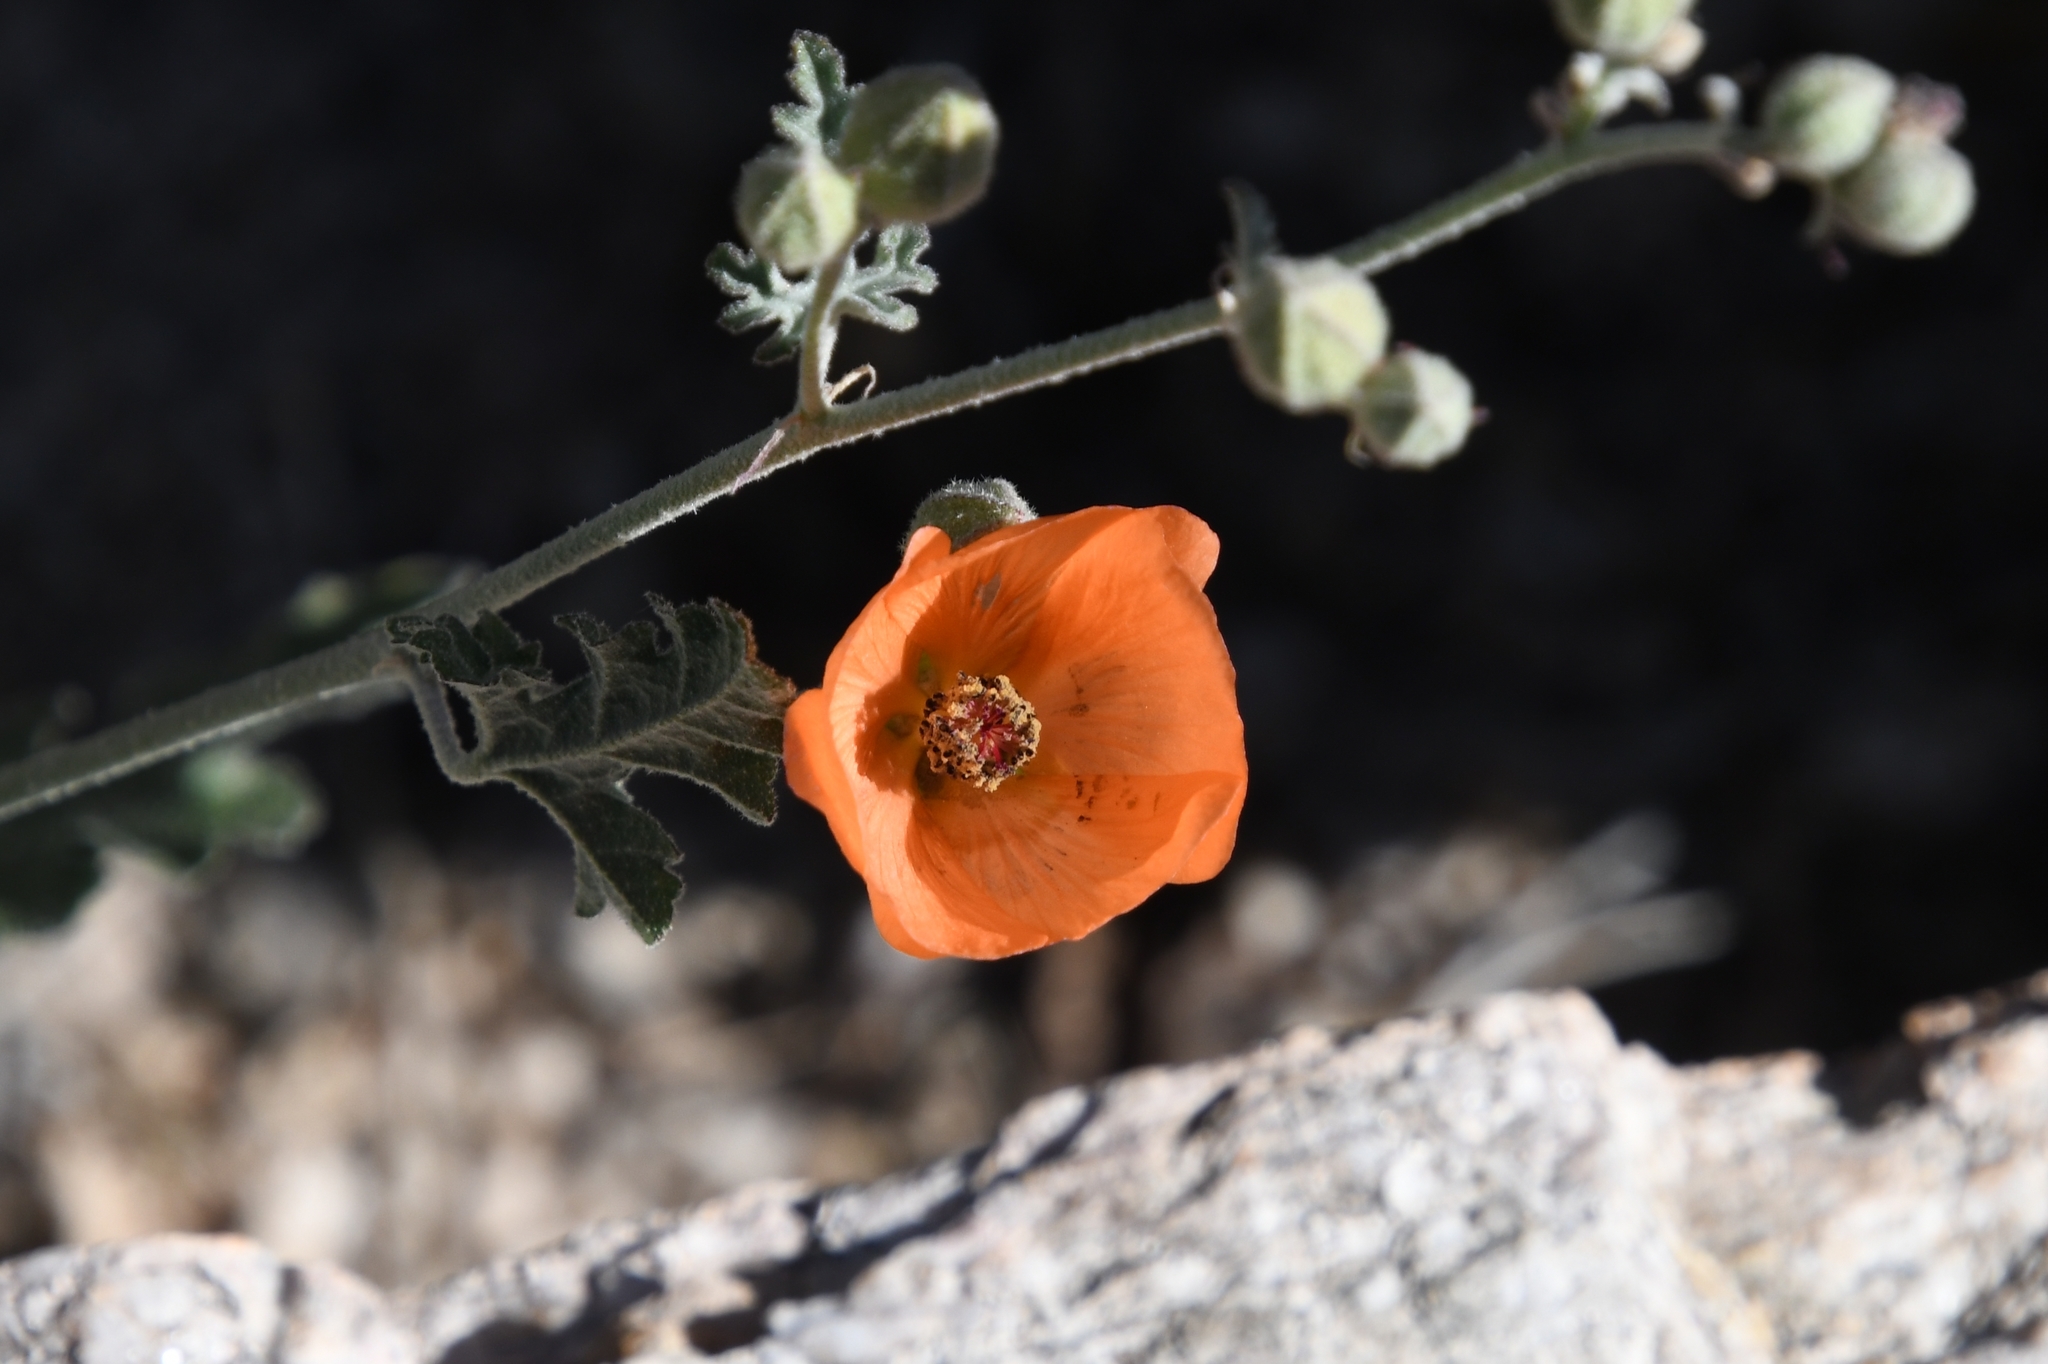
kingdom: Plantae
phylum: Tracheophyta
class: Magnoliopsida
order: Malvales
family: Malvaceae
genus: Sphaeralcea
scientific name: Sphaeralcea laxa
